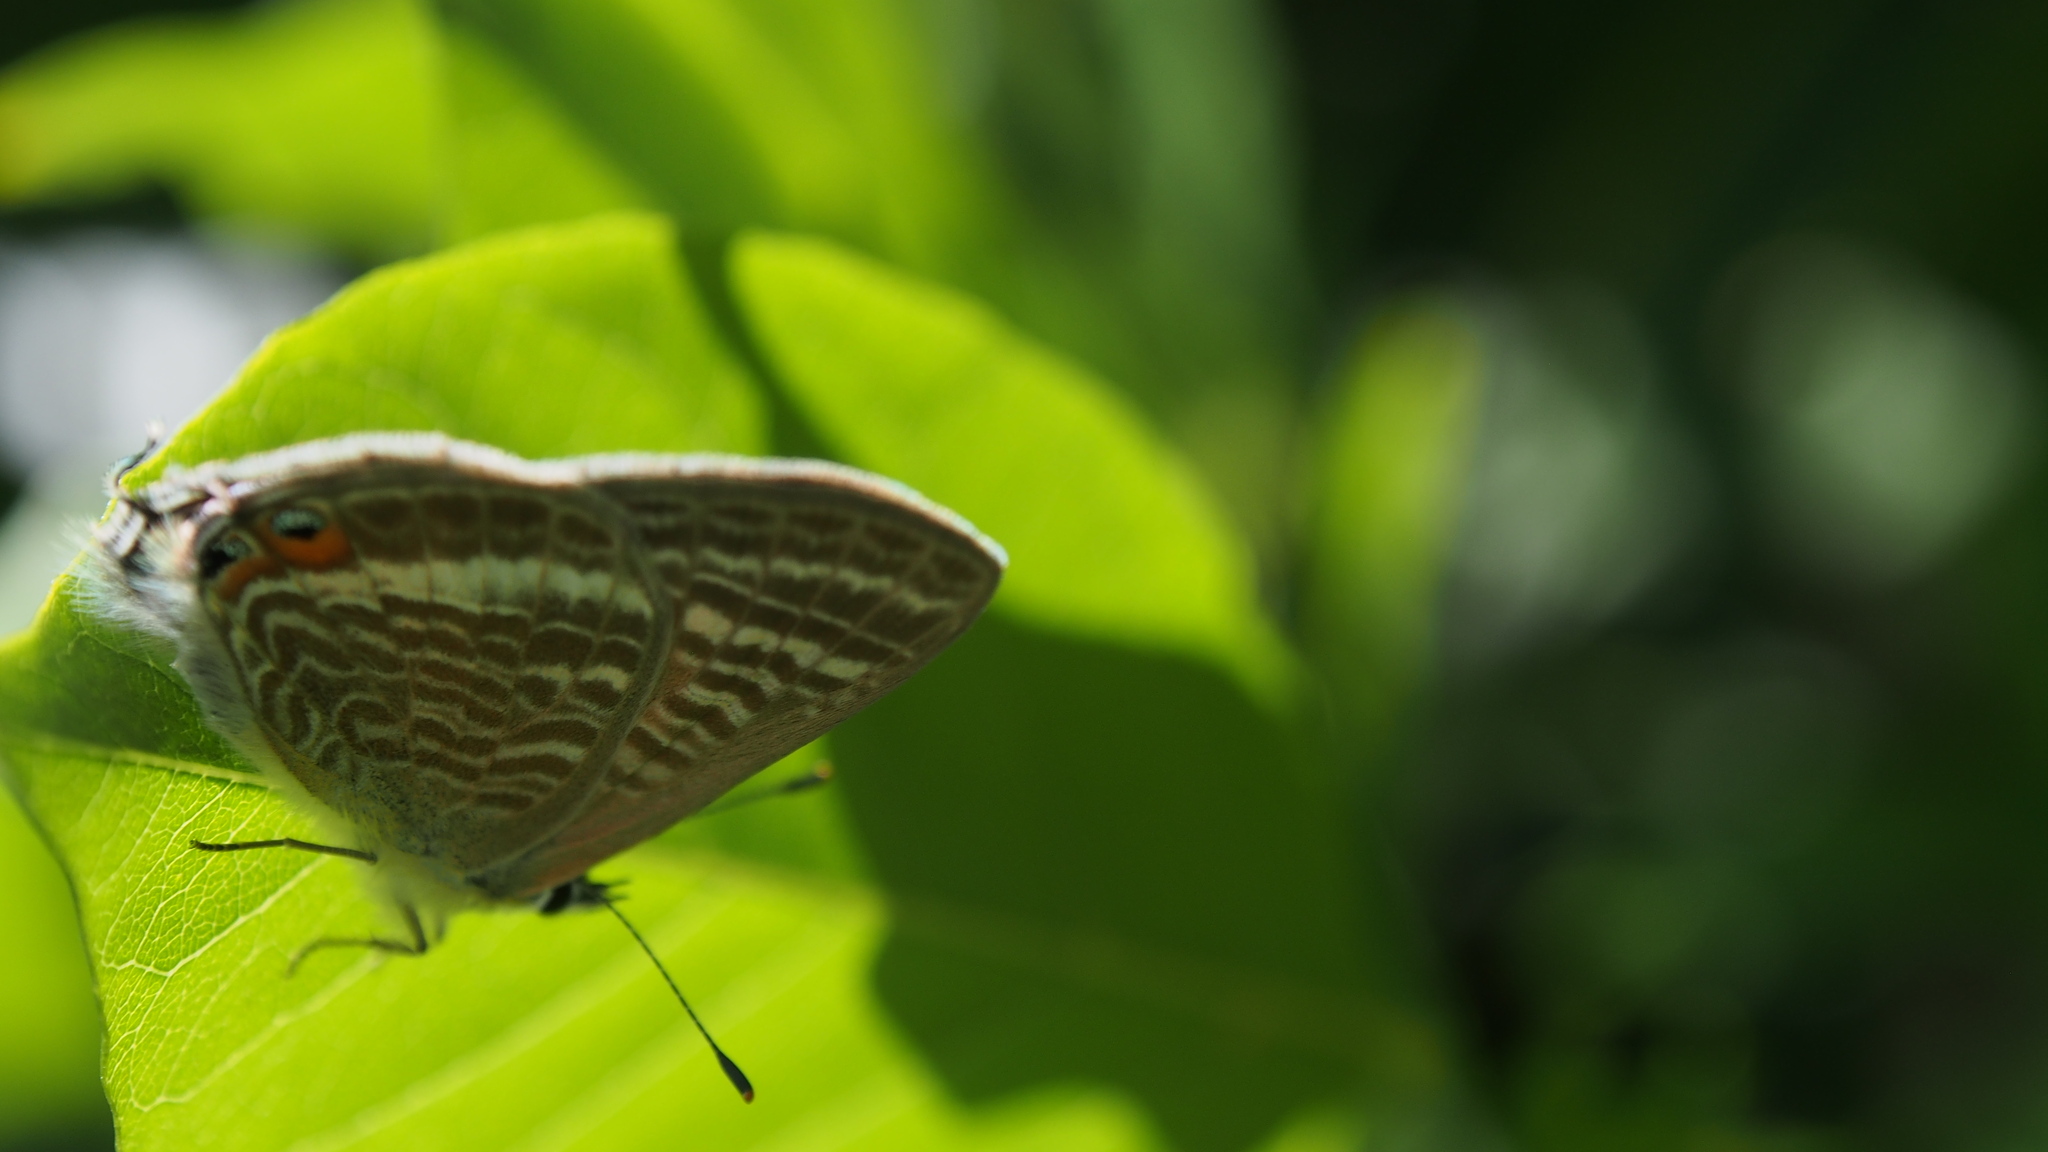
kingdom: Animalia
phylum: Arthropoda
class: Insecta
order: Lepidoptera
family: Lycaenidae
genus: Lampides
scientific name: Lampides boeticus
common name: Long-tailed blue
